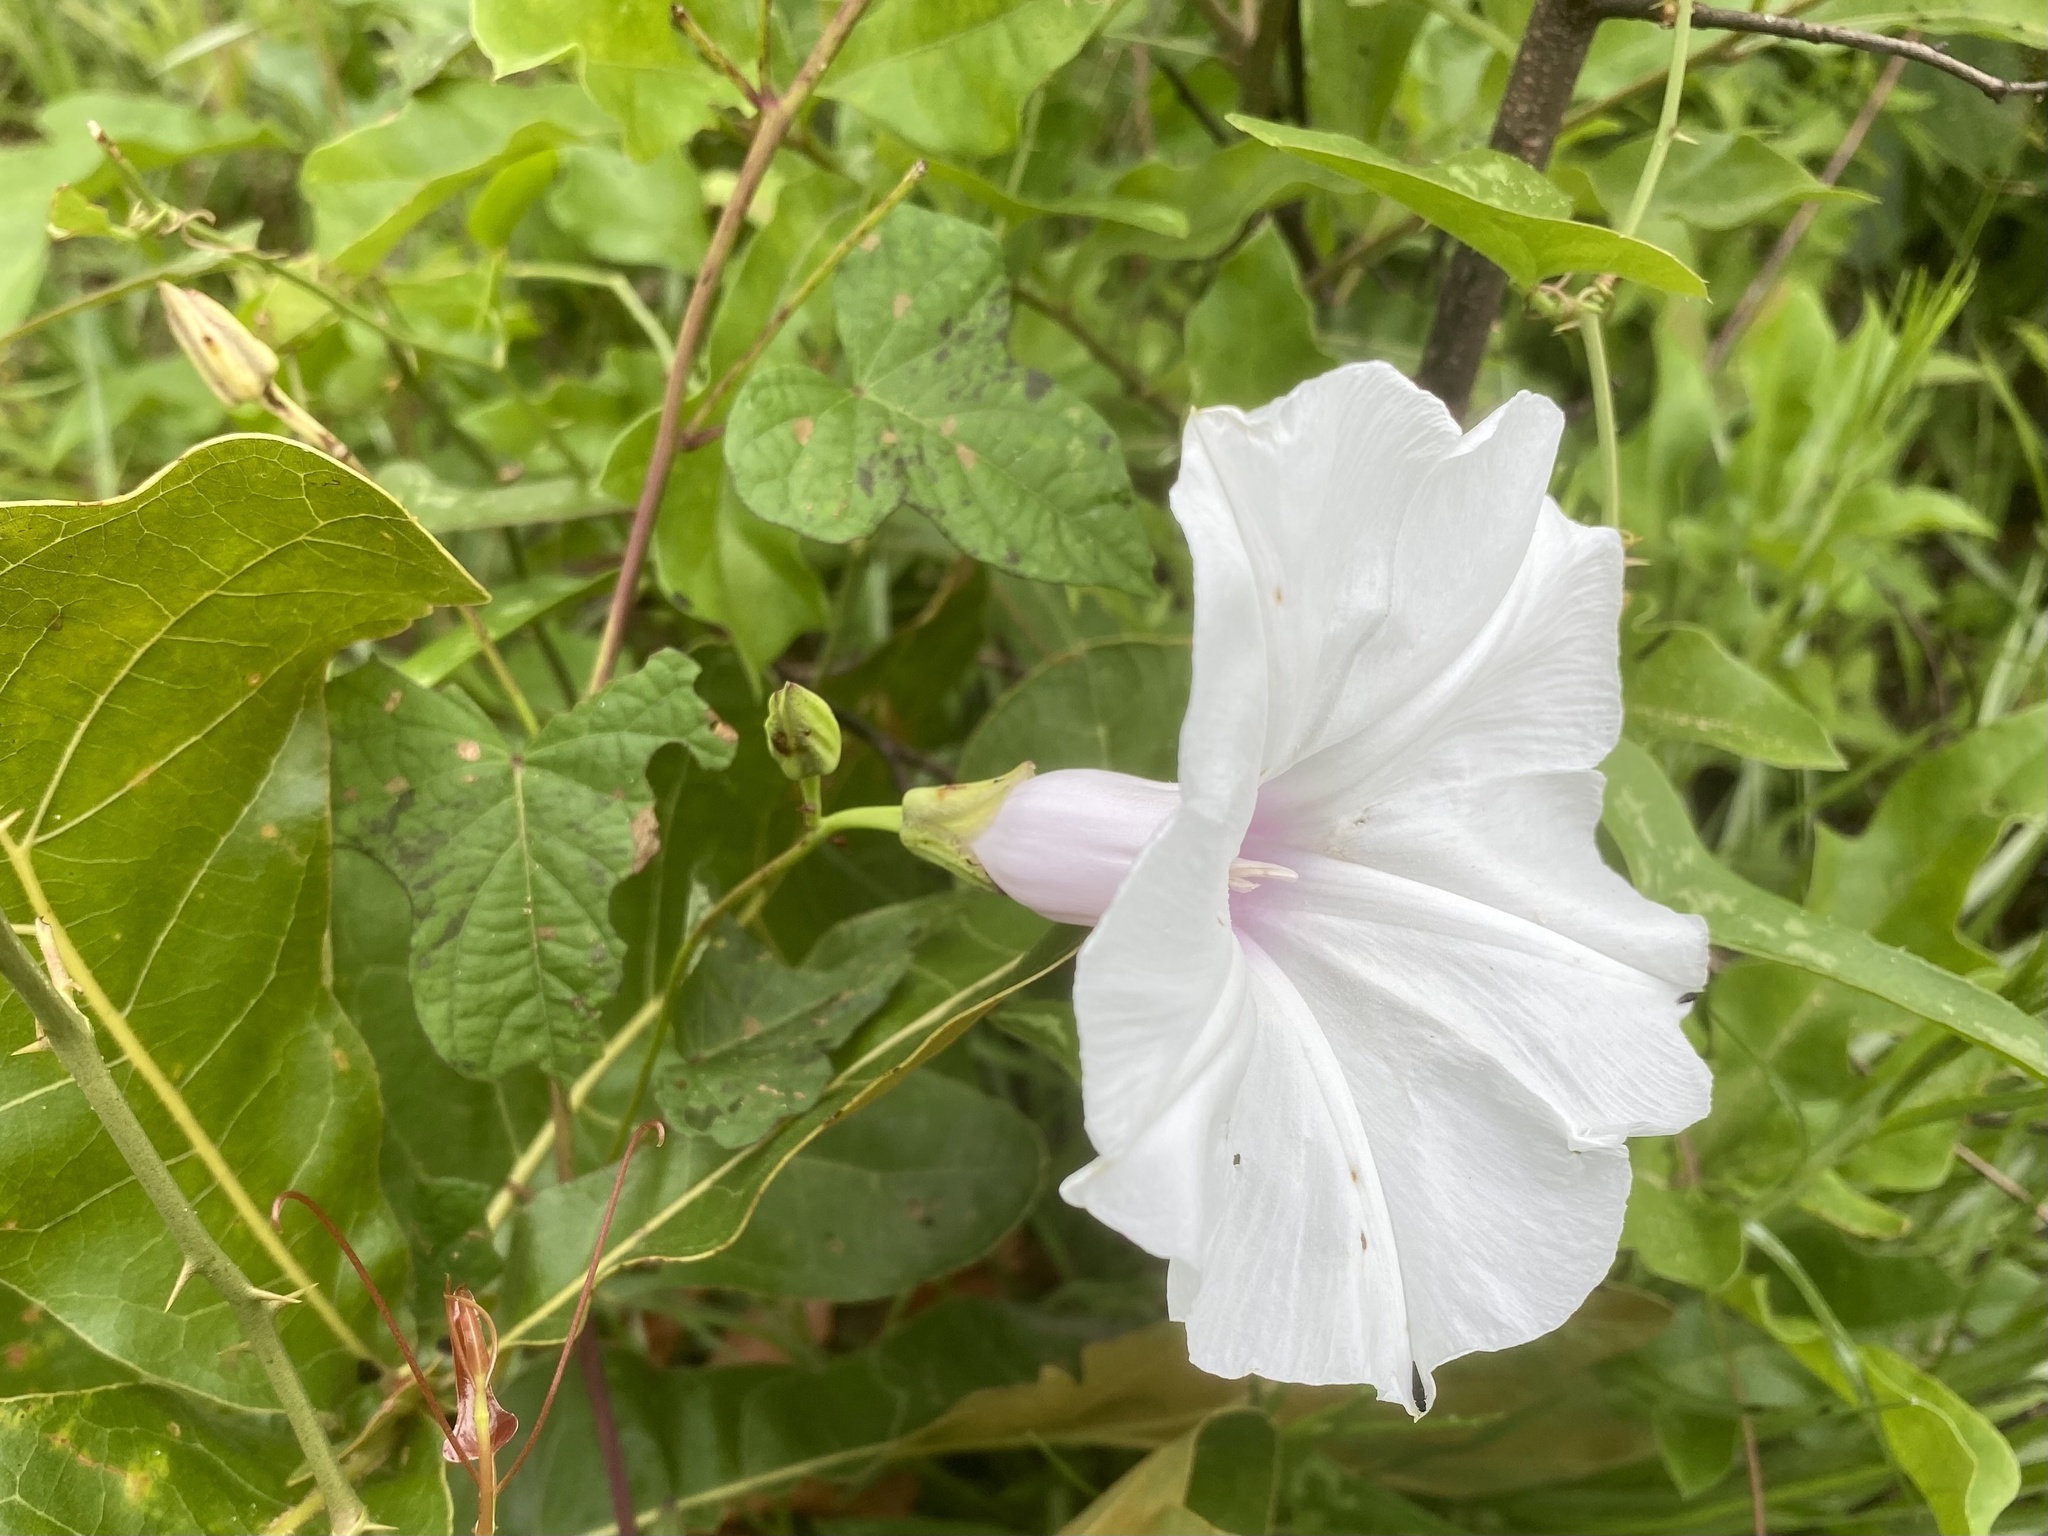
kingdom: Plantae
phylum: Tracheophyta
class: Magnoliopsida
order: Solanales
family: Convolvulaceae
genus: Ipomoea
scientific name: Ipomoea pandurata
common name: Man-of-the-earth
